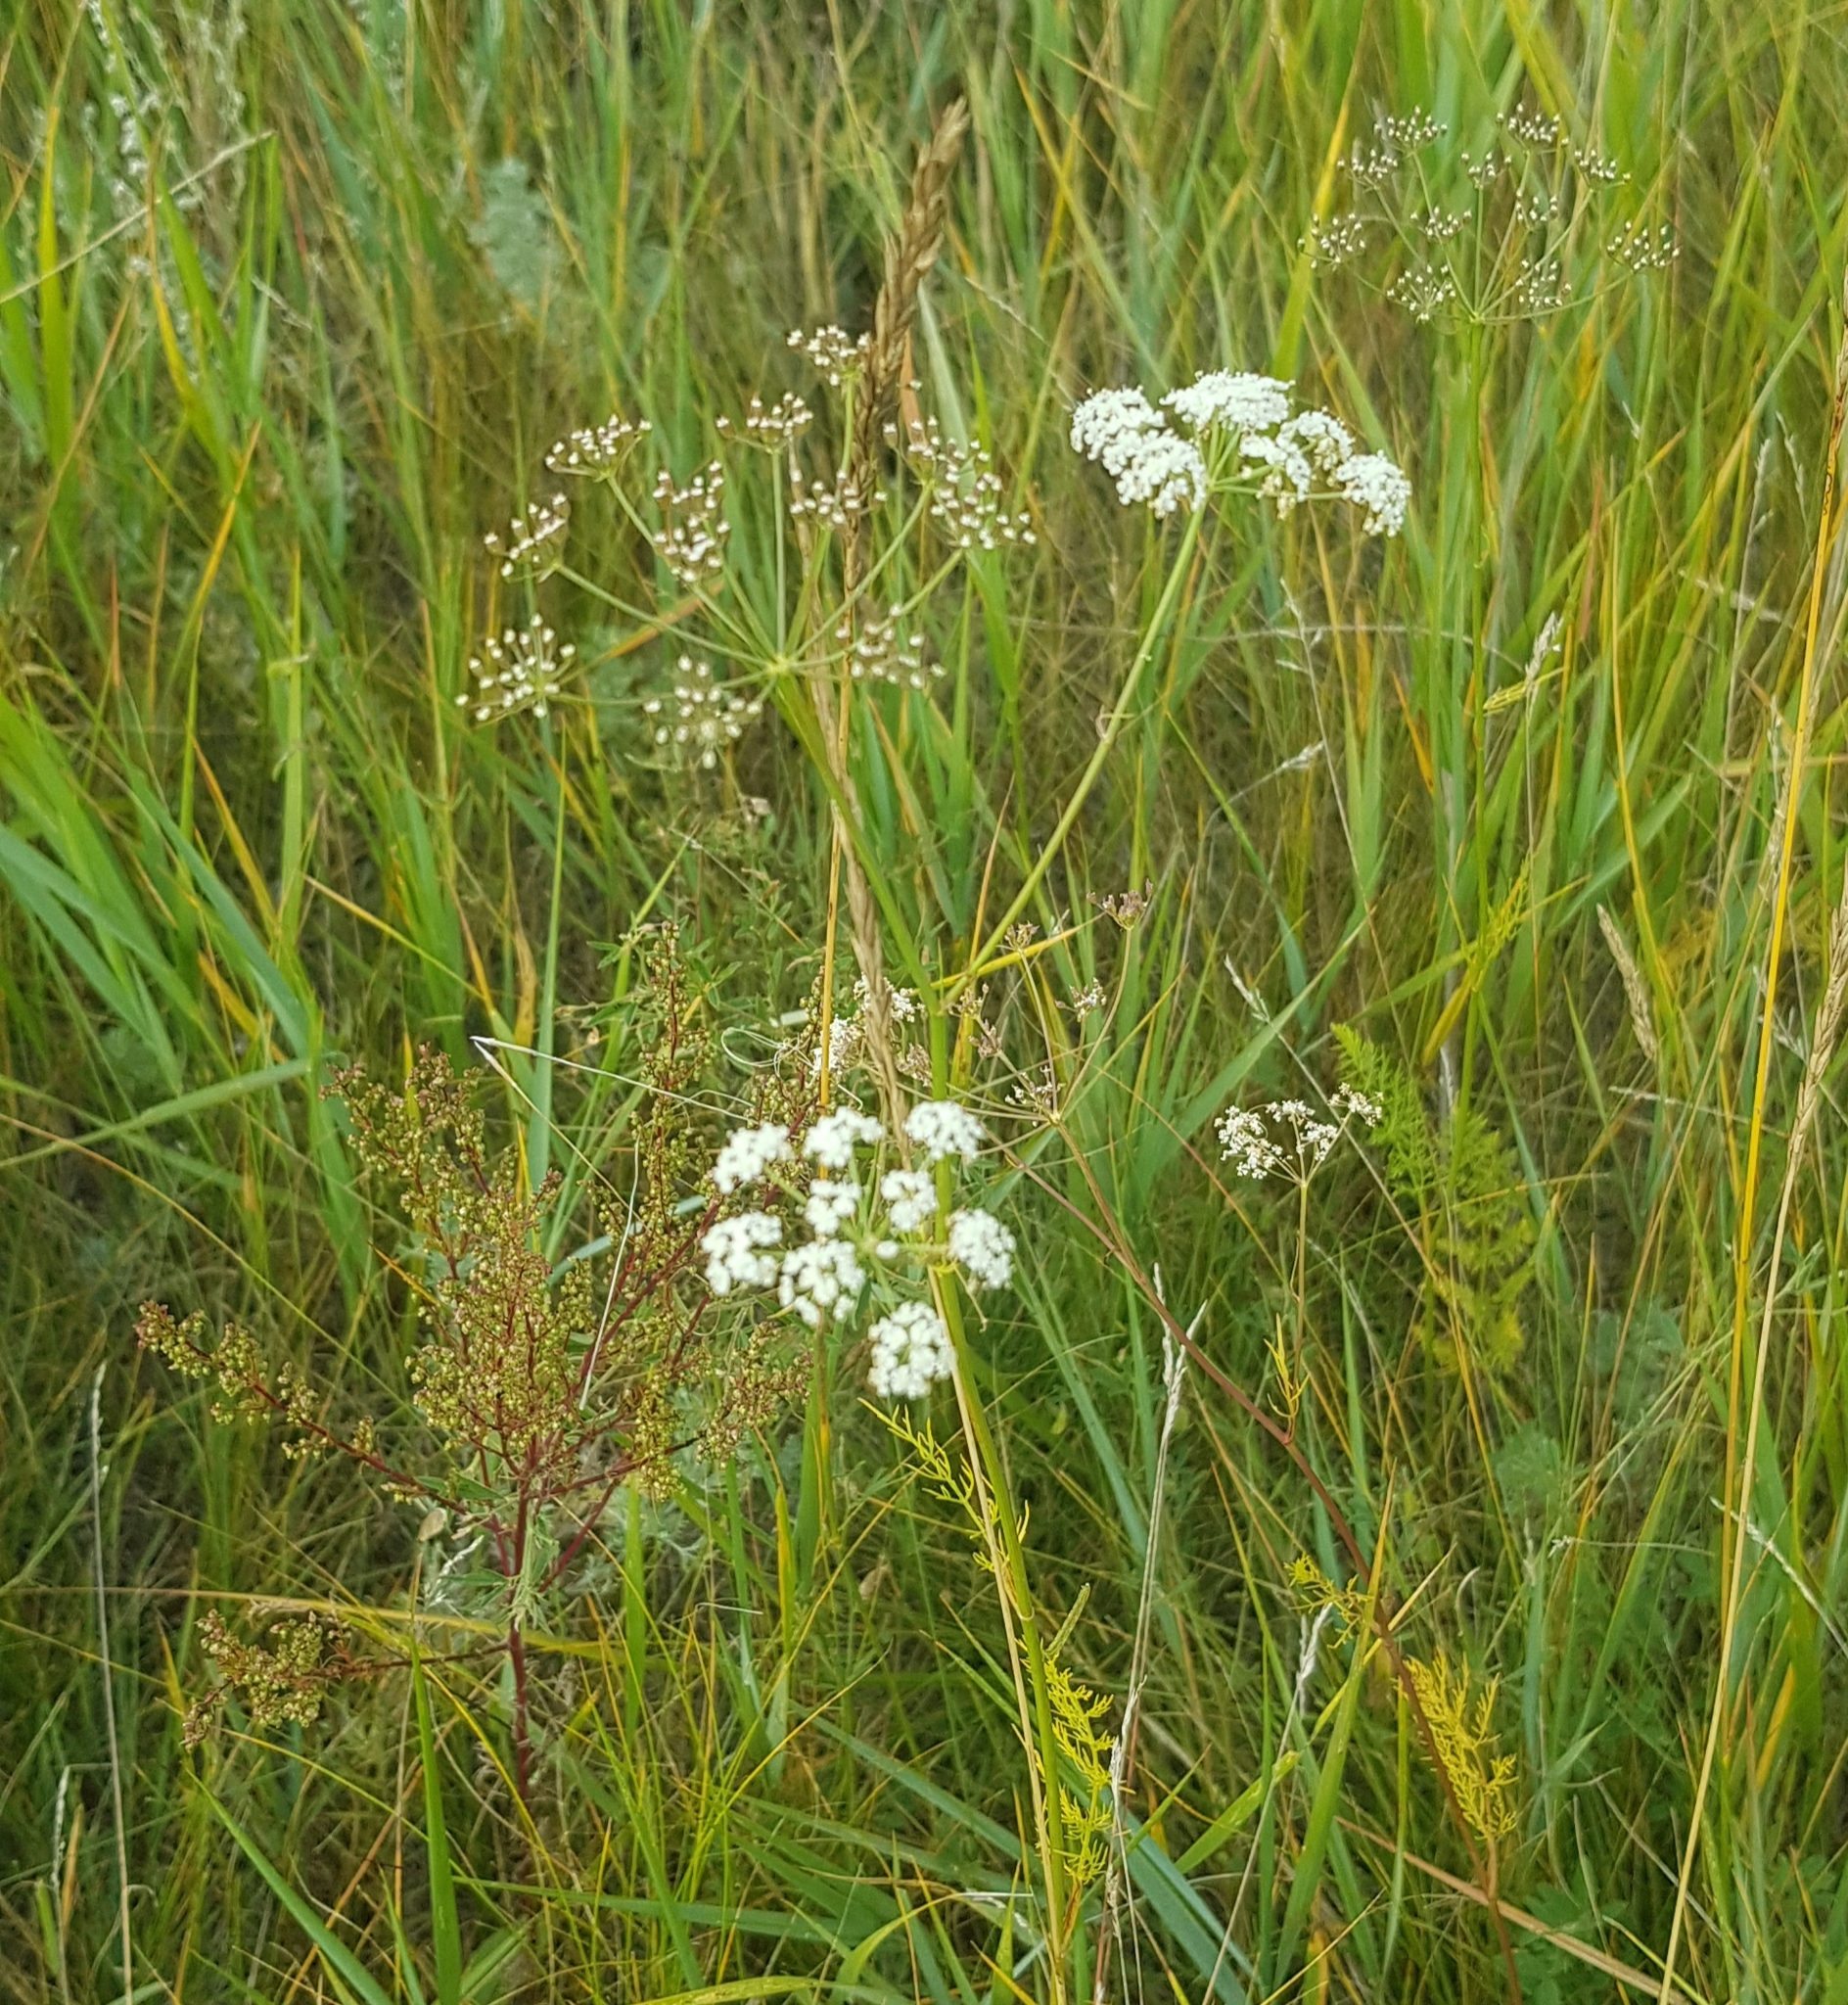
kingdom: Plantae
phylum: Tracheophyta
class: Magnoliopsida
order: Apiales
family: Apiaceae
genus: Carum
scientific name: Carum buriaticum
